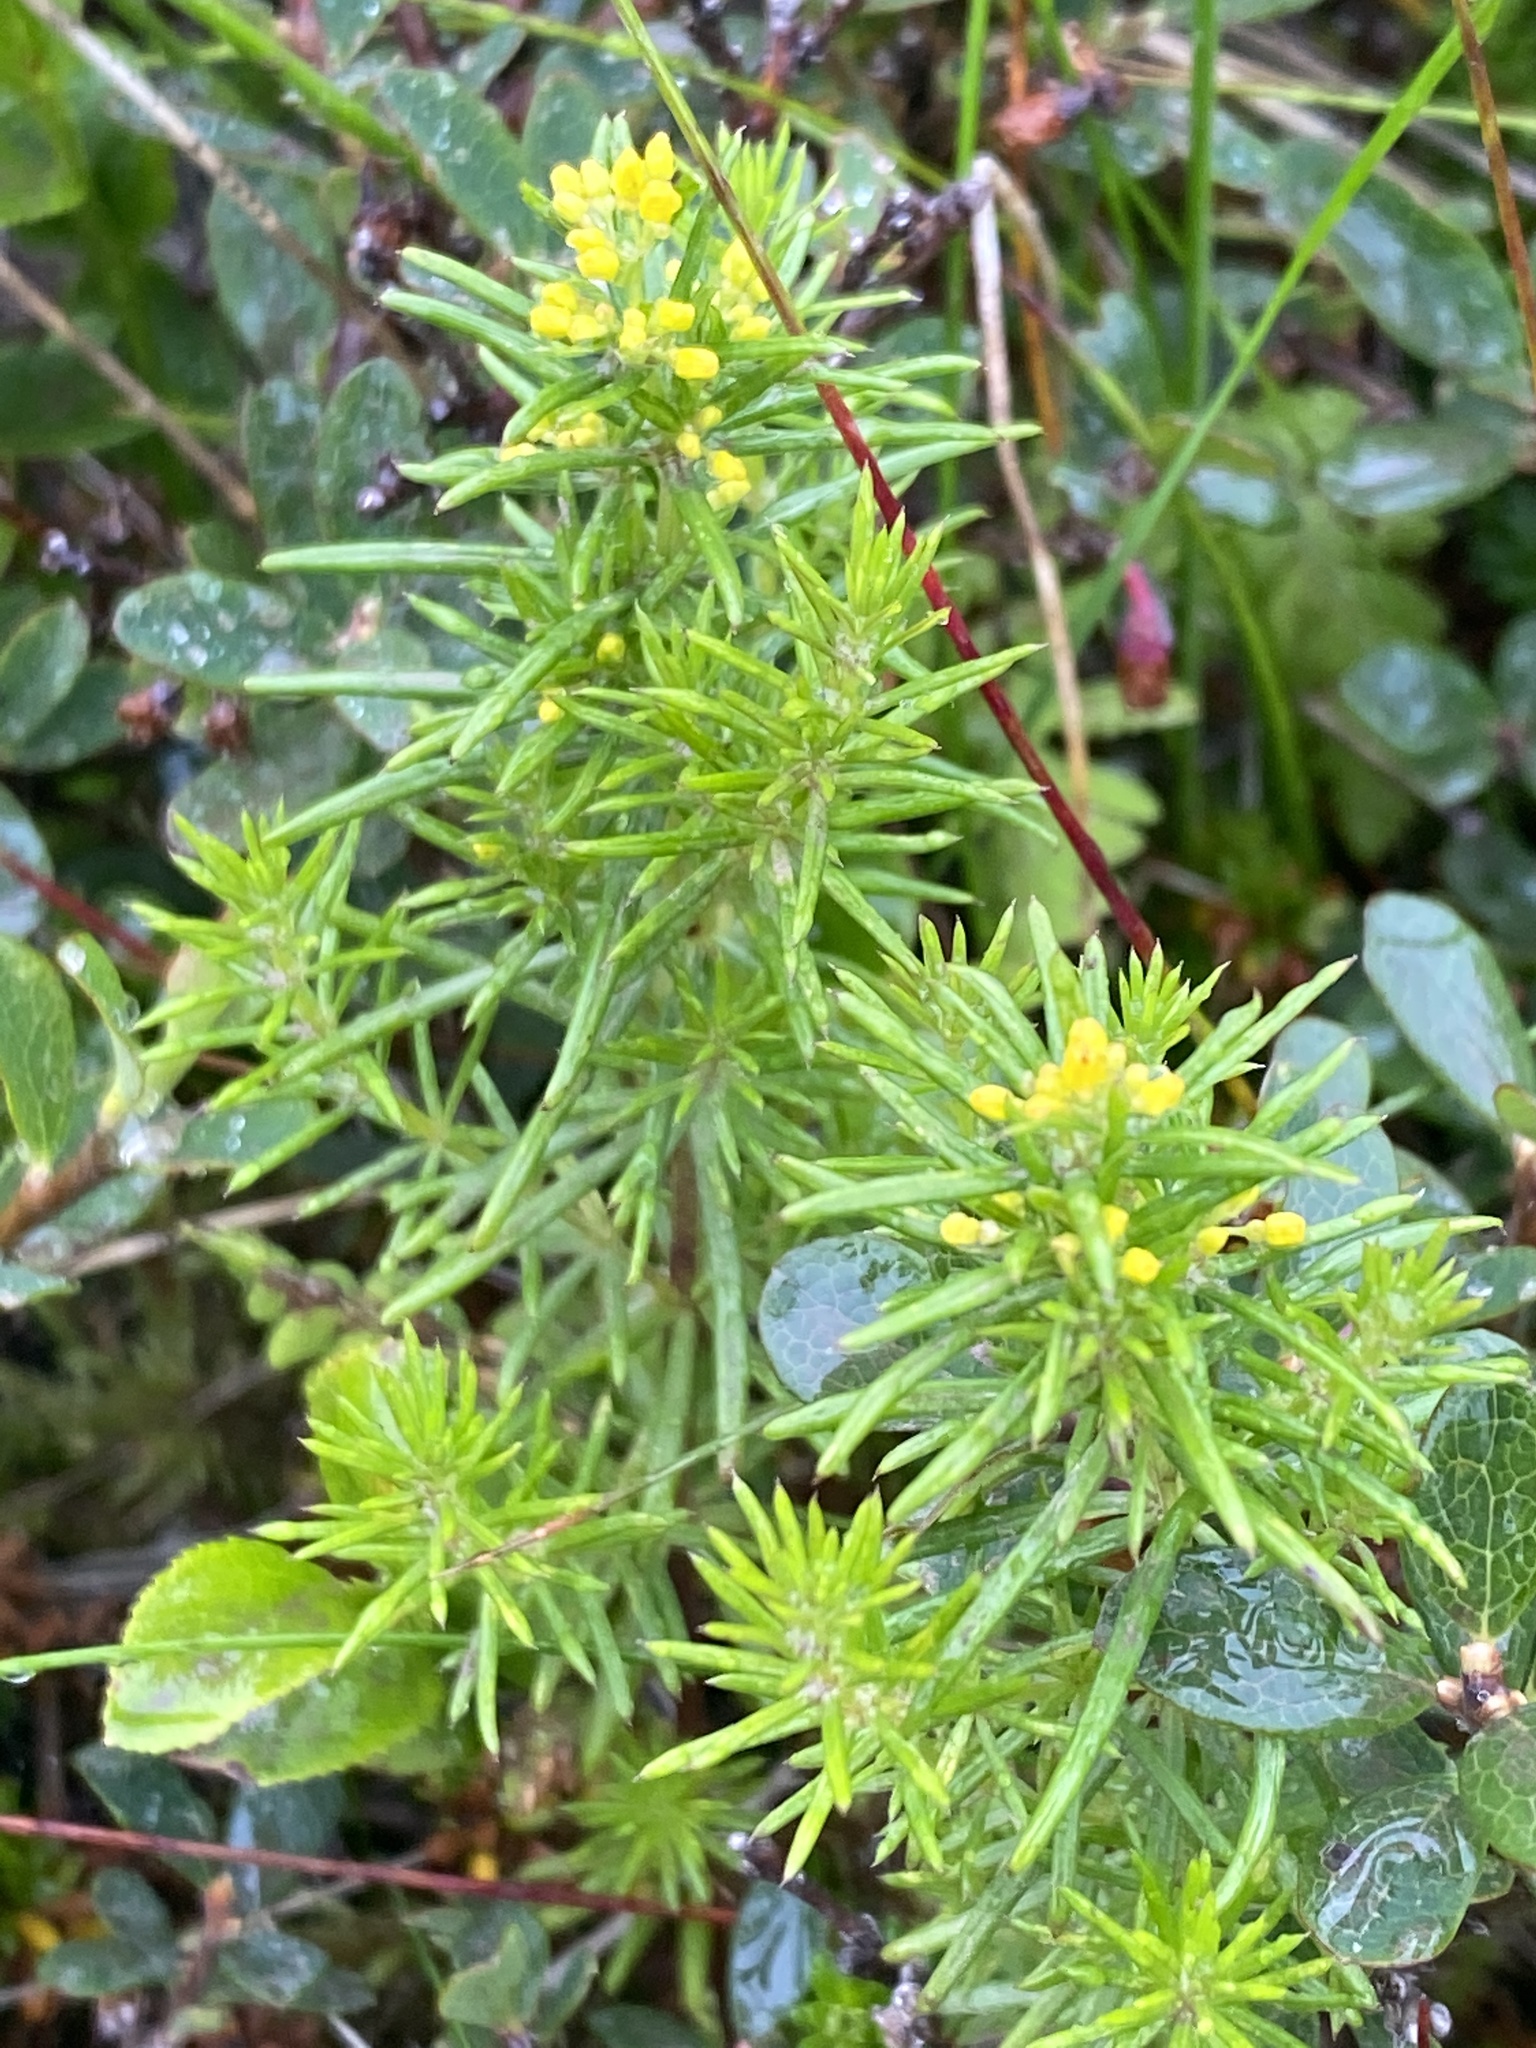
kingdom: Plantae
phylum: Tracheophyta
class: Magnoliopsida
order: Gentianales
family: Rubiaceae
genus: Galium
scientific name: Galium verum
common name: Lady's bedstraw
